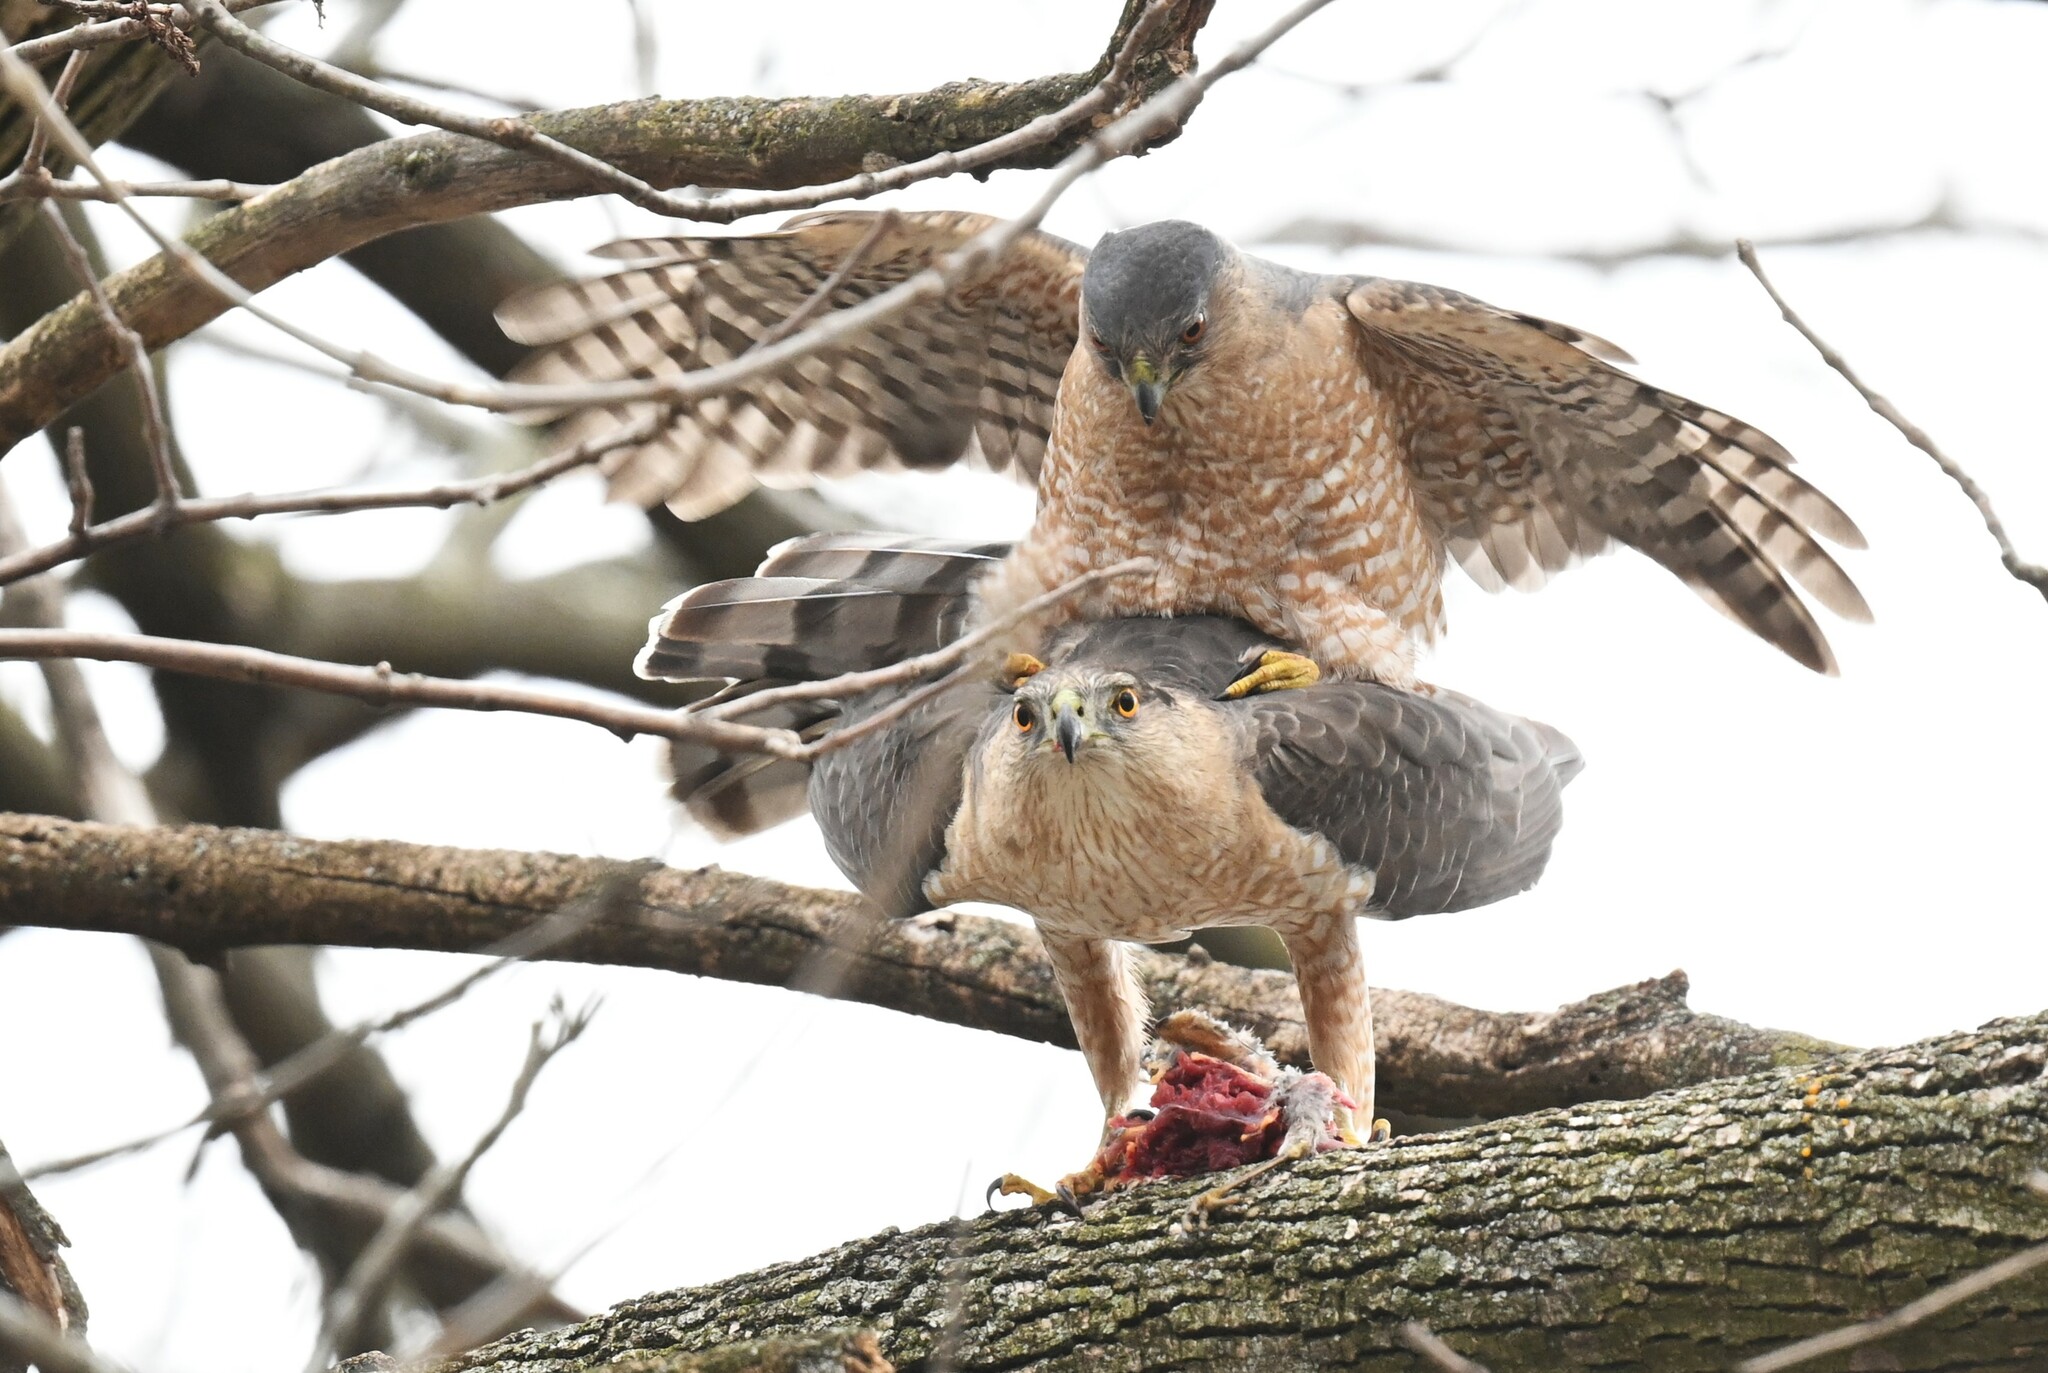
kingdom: Animalia
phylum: Chordata
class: Aves
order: Accipitriformes
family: Accipitridae
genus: Accipiter
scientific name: Accipiter cooperii
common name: Cooper's hawk
